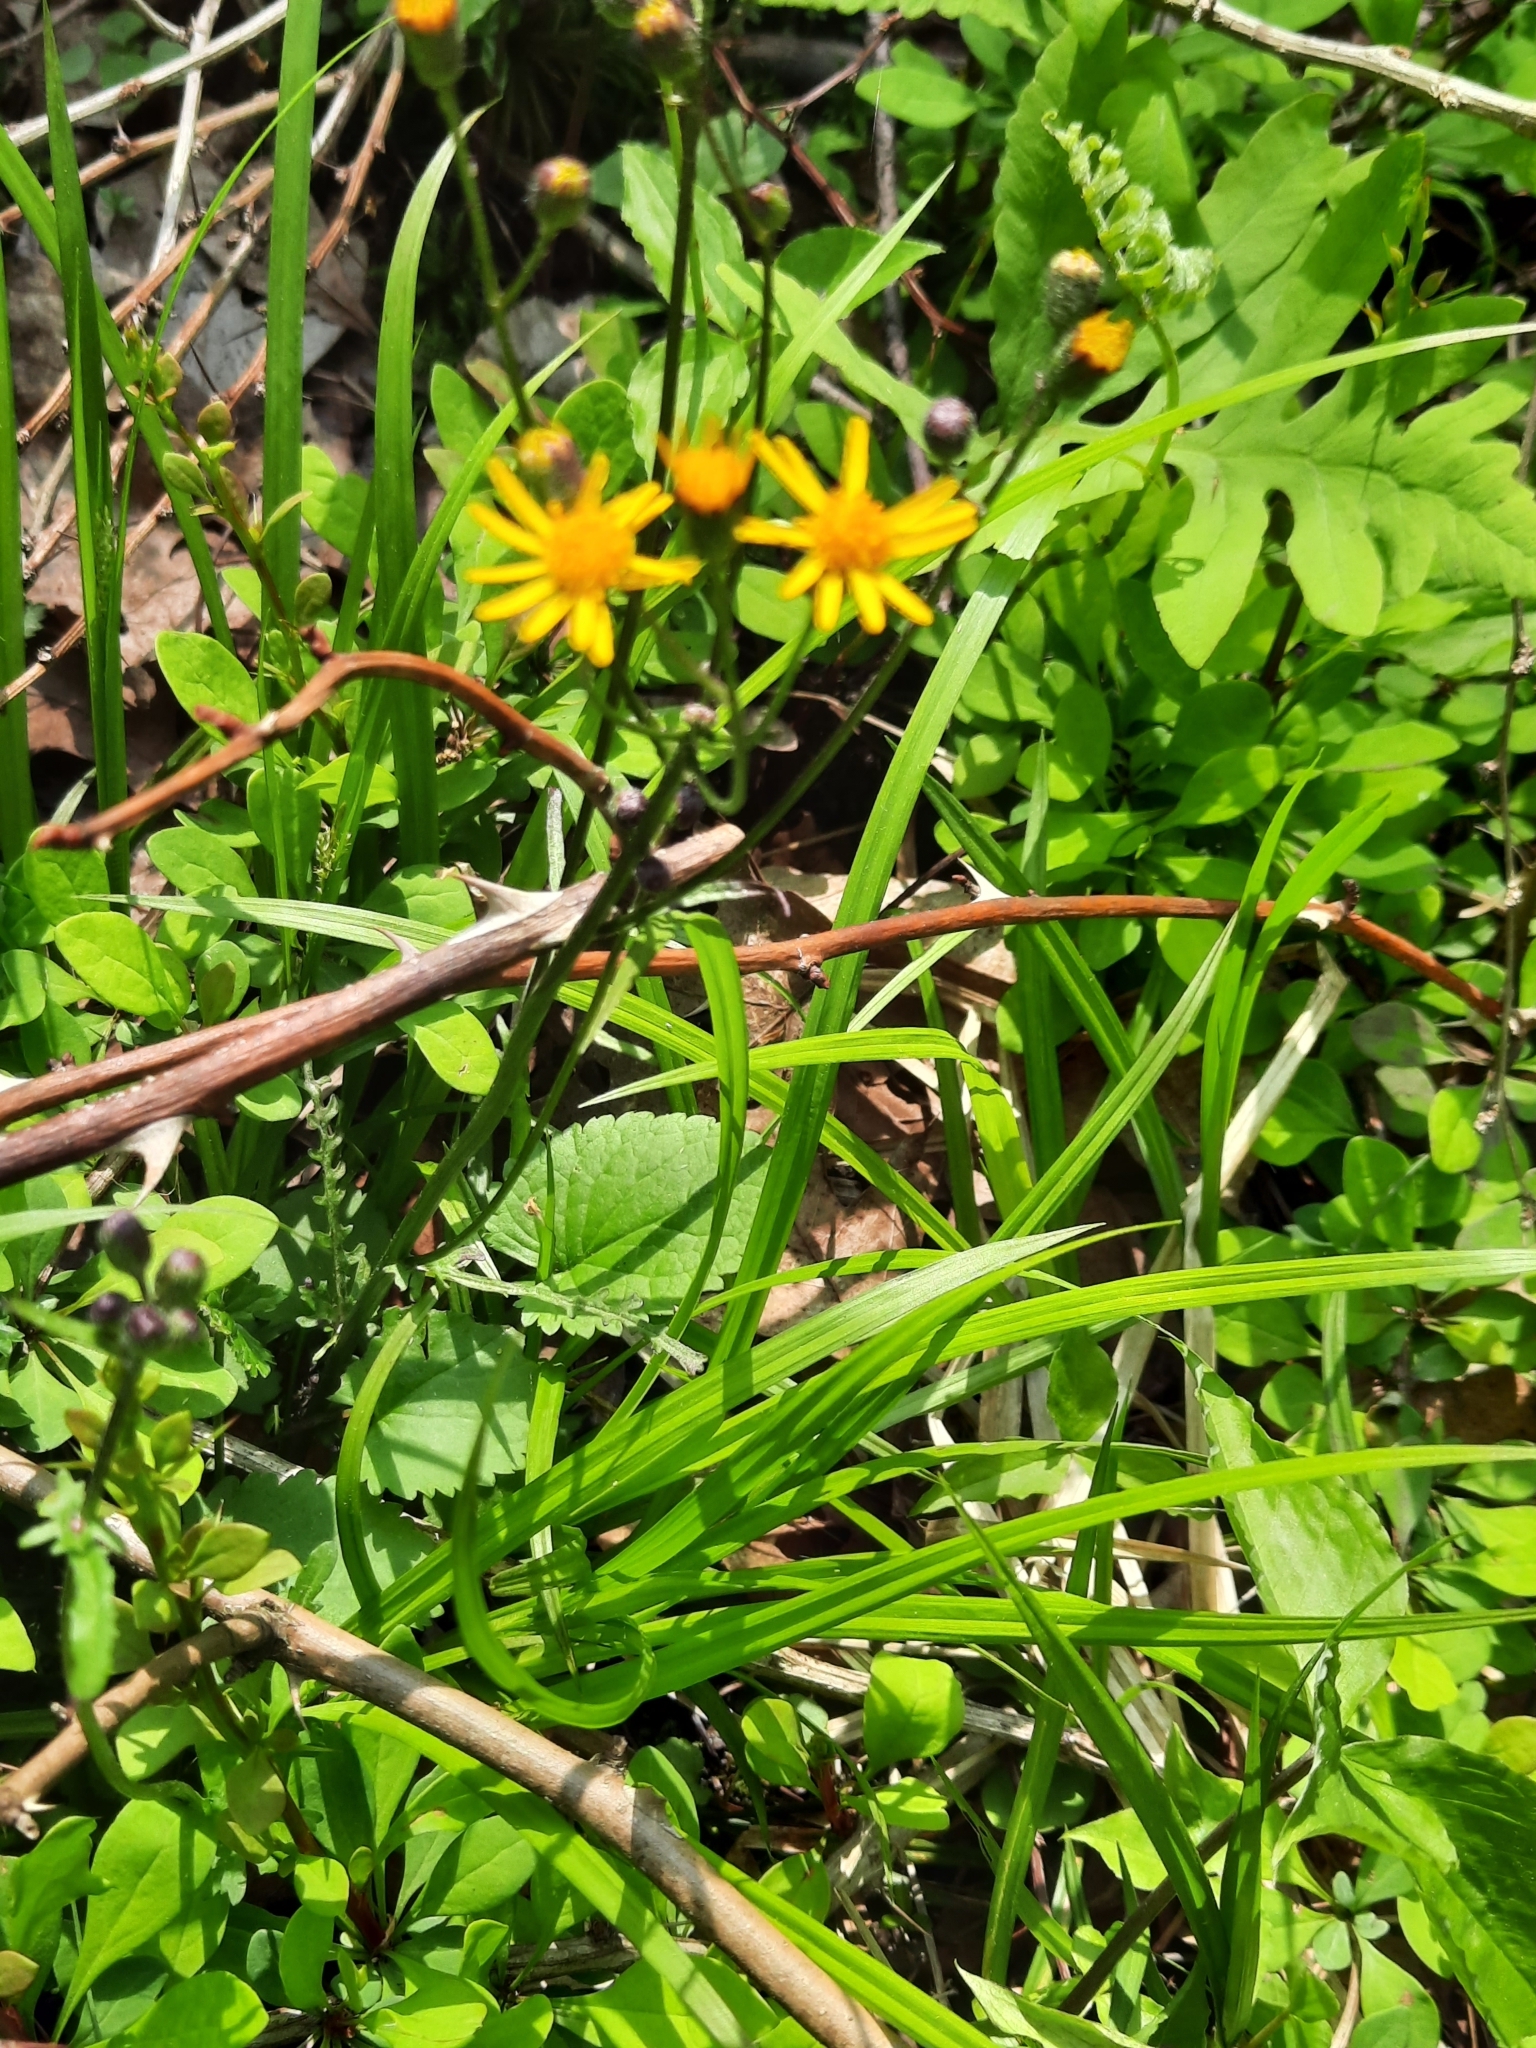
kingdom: Plantae
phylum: Tracheophyta
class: Magnoliopsida
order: Asterales
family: Asteraceae
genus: Packera
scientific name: Packera aurea
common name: Golden groundsel
